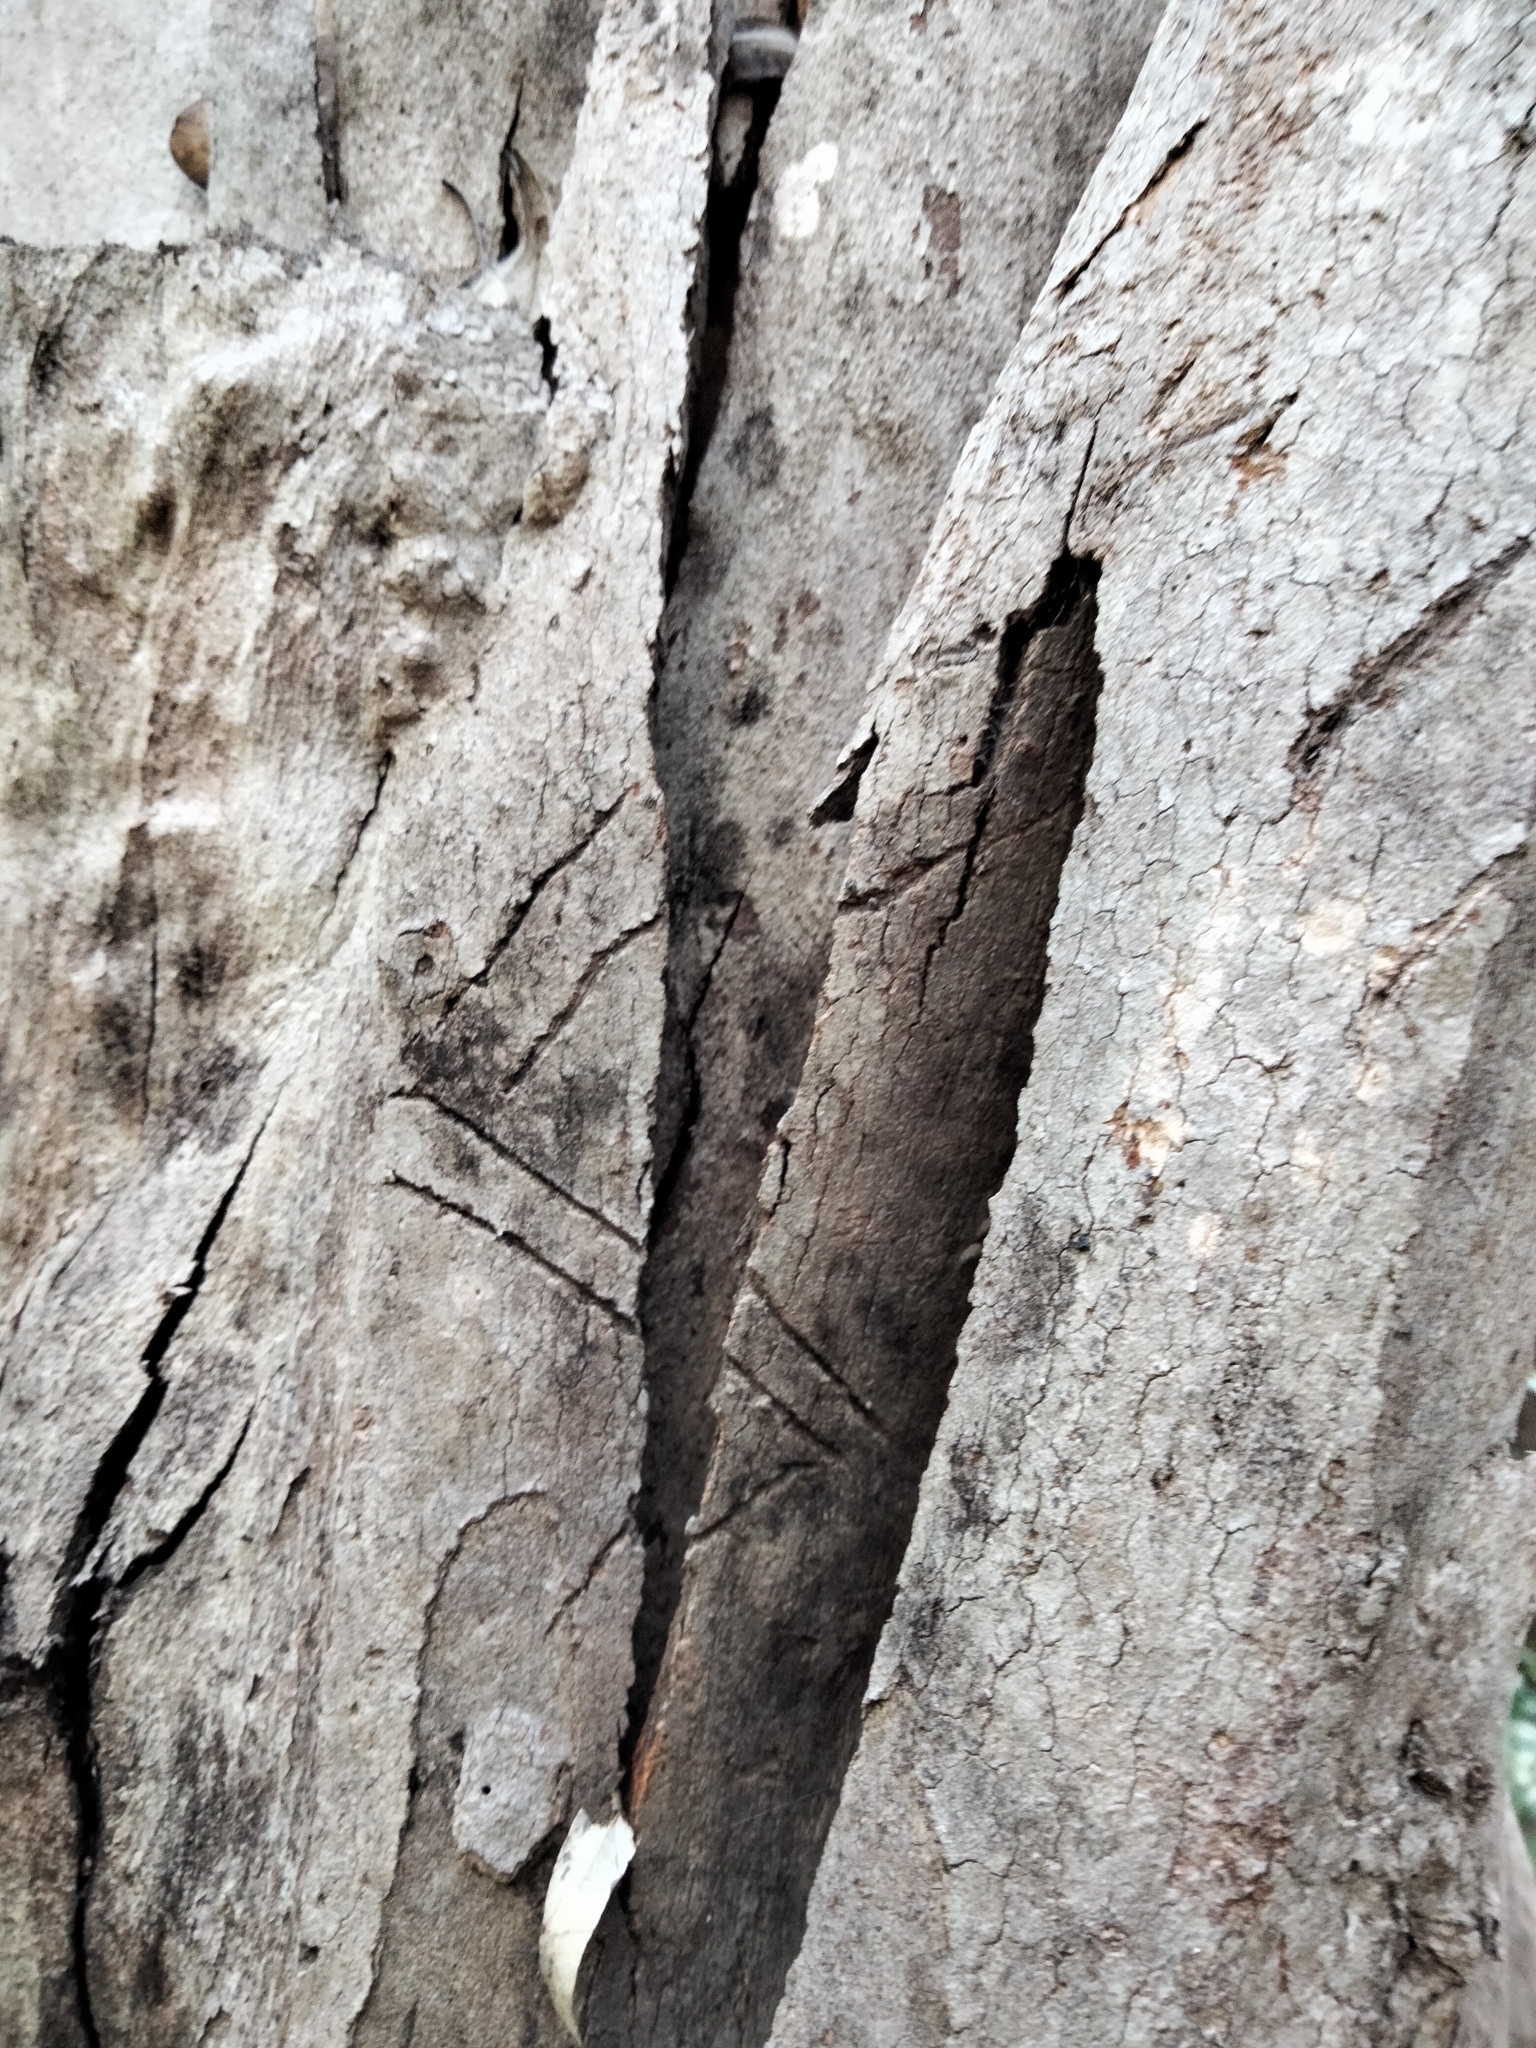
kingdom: Animalia
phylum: Chordata
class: Mammalia
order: Diprotodontia
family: Phascolarctidae
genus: Phascolarctos
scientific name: Phascolarctos cinereus
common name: Koala
